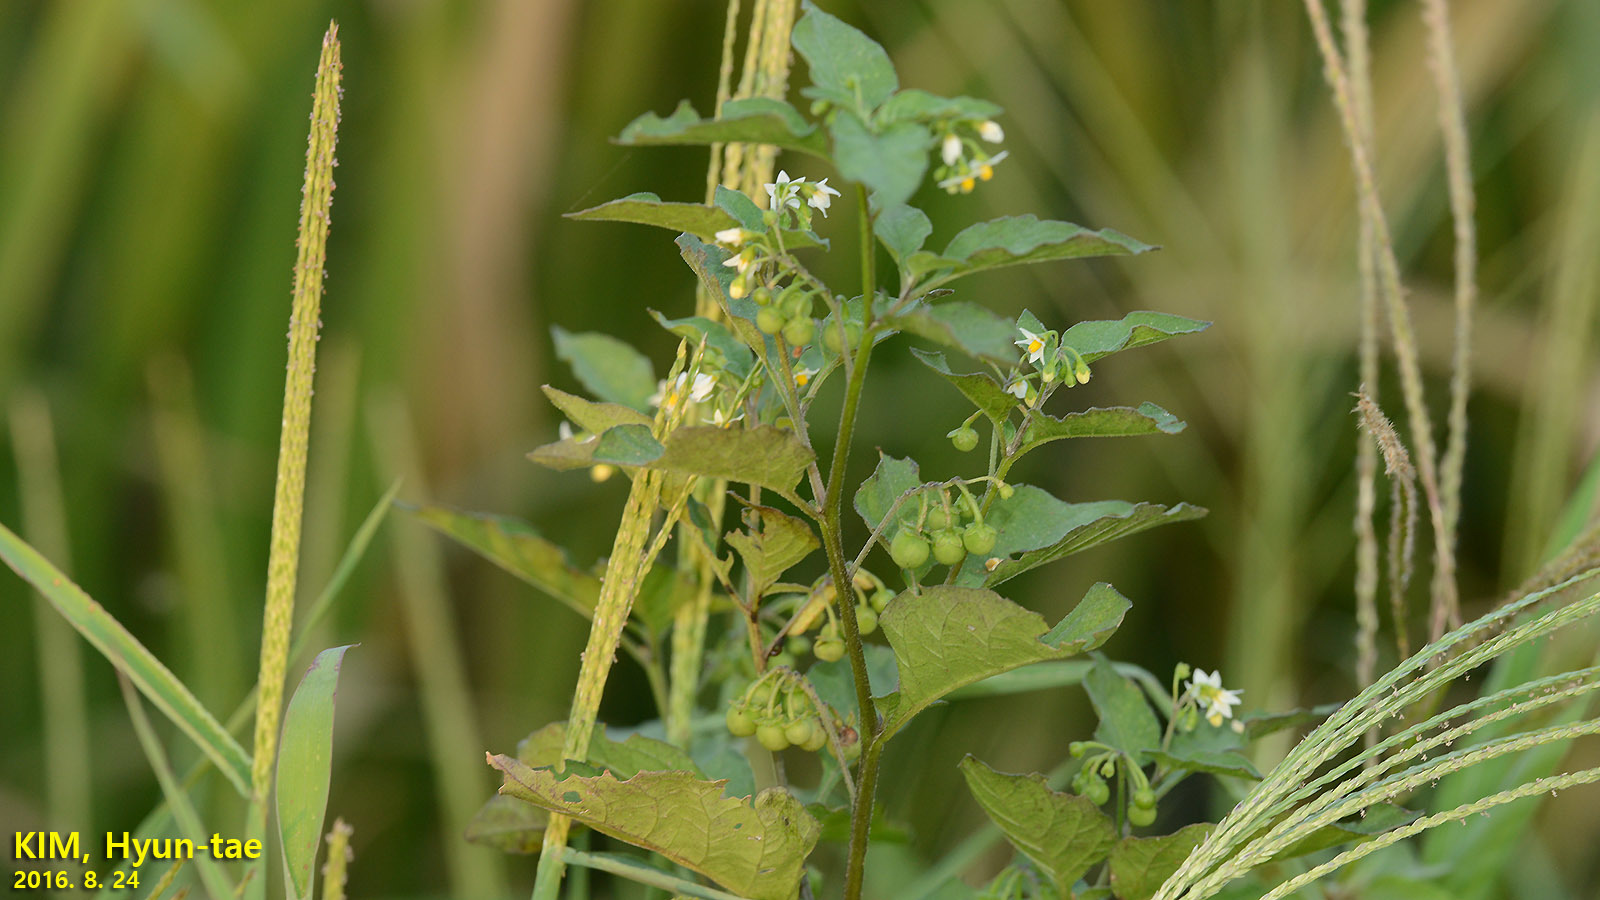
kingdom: Plantae
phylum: Tracheophyta
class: Magnoliopsida
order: Solanales
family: Solanaceae
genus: Solanum
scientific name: Solanum nigrum
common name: Black nightshade
